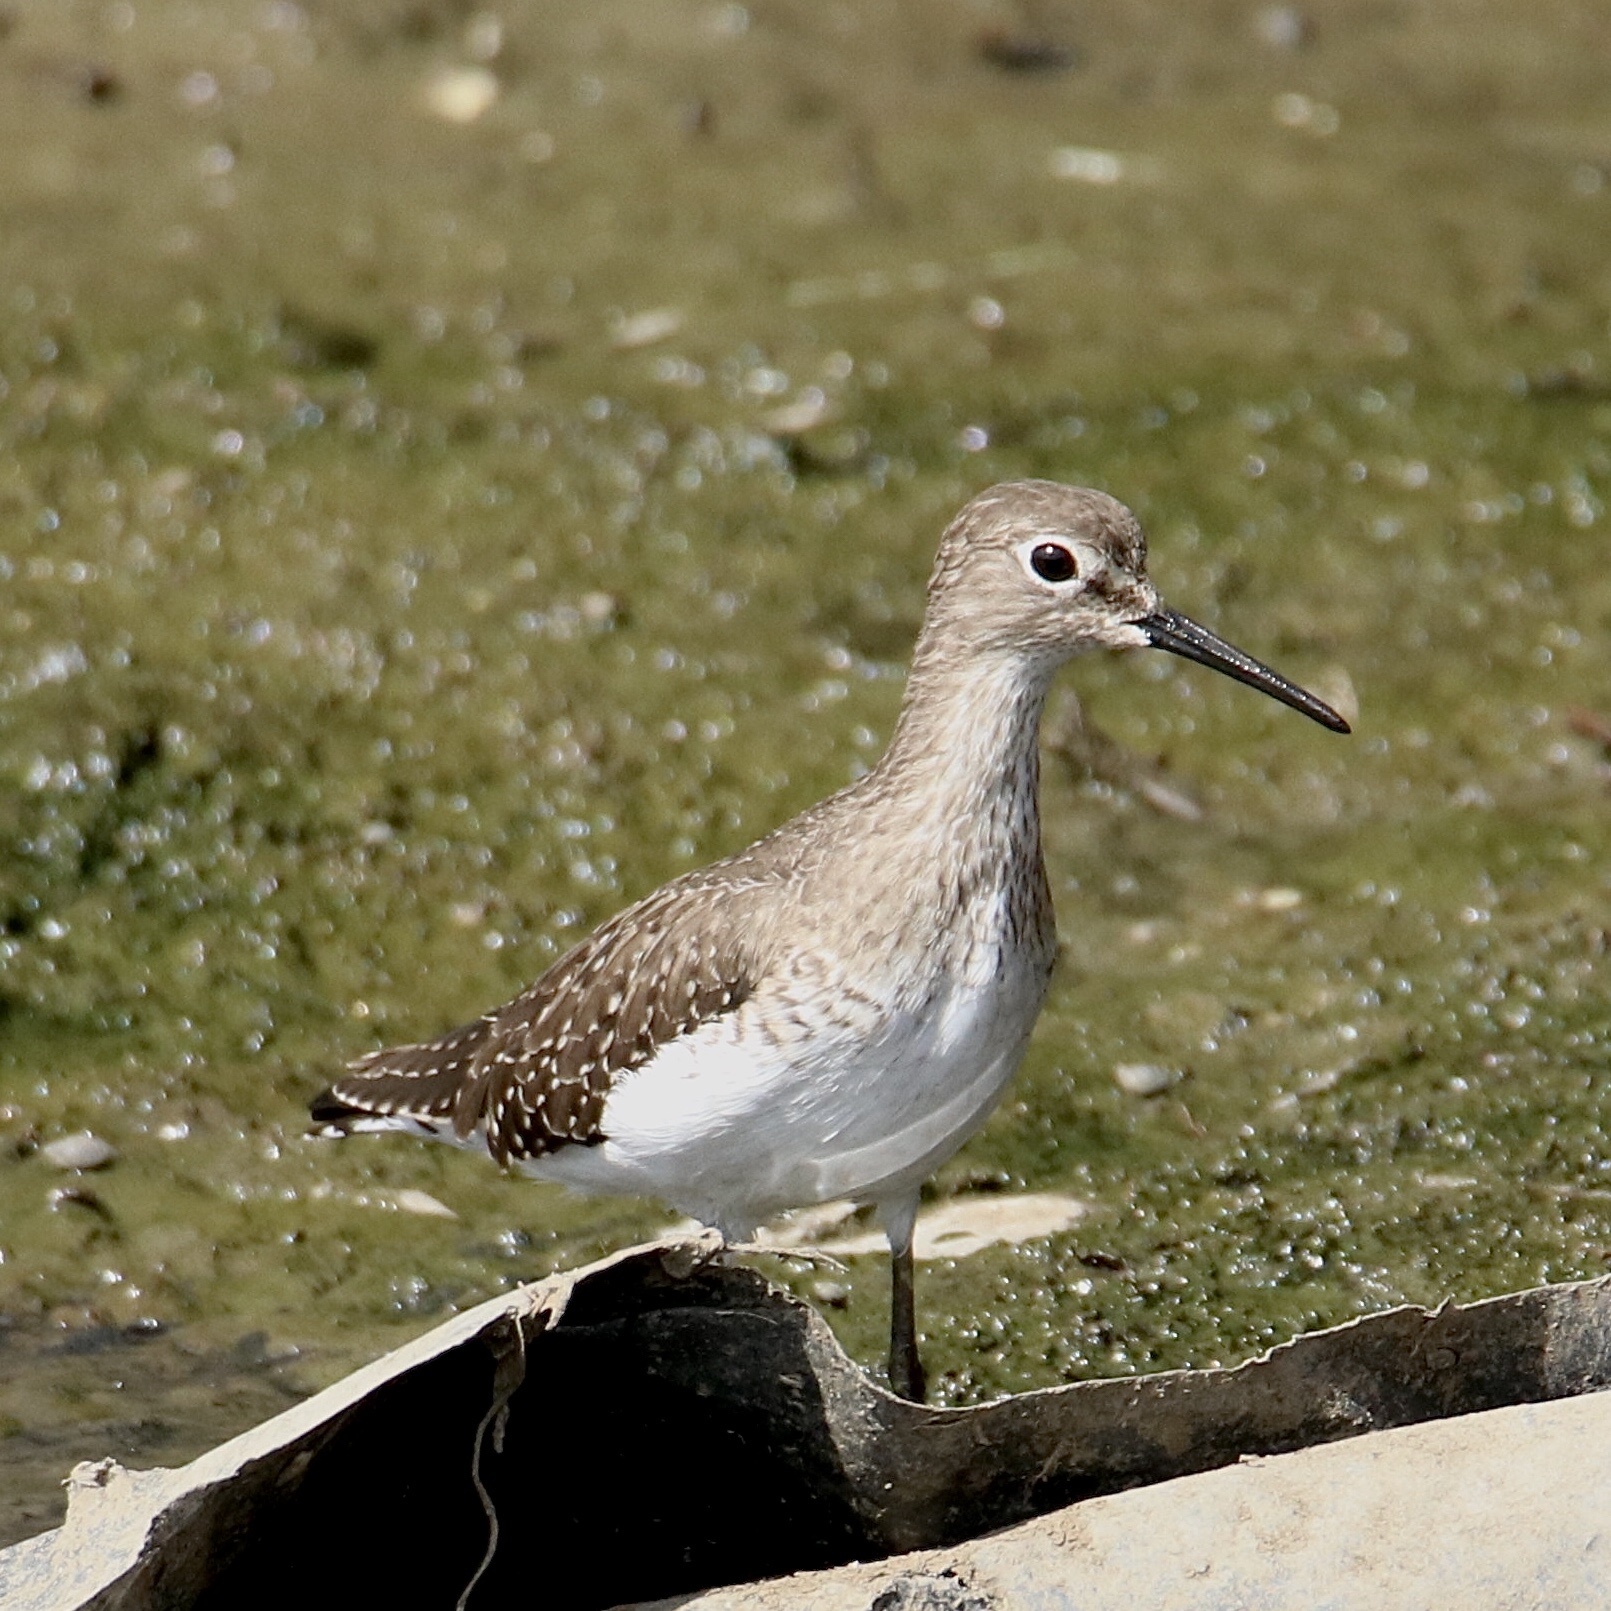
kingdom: Animalia
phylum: Chordata
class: Aves
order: Charadriiformes
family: Scolopacidae
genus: Tringa
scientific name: Tringa solitaria
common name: Solitary sandpiper
